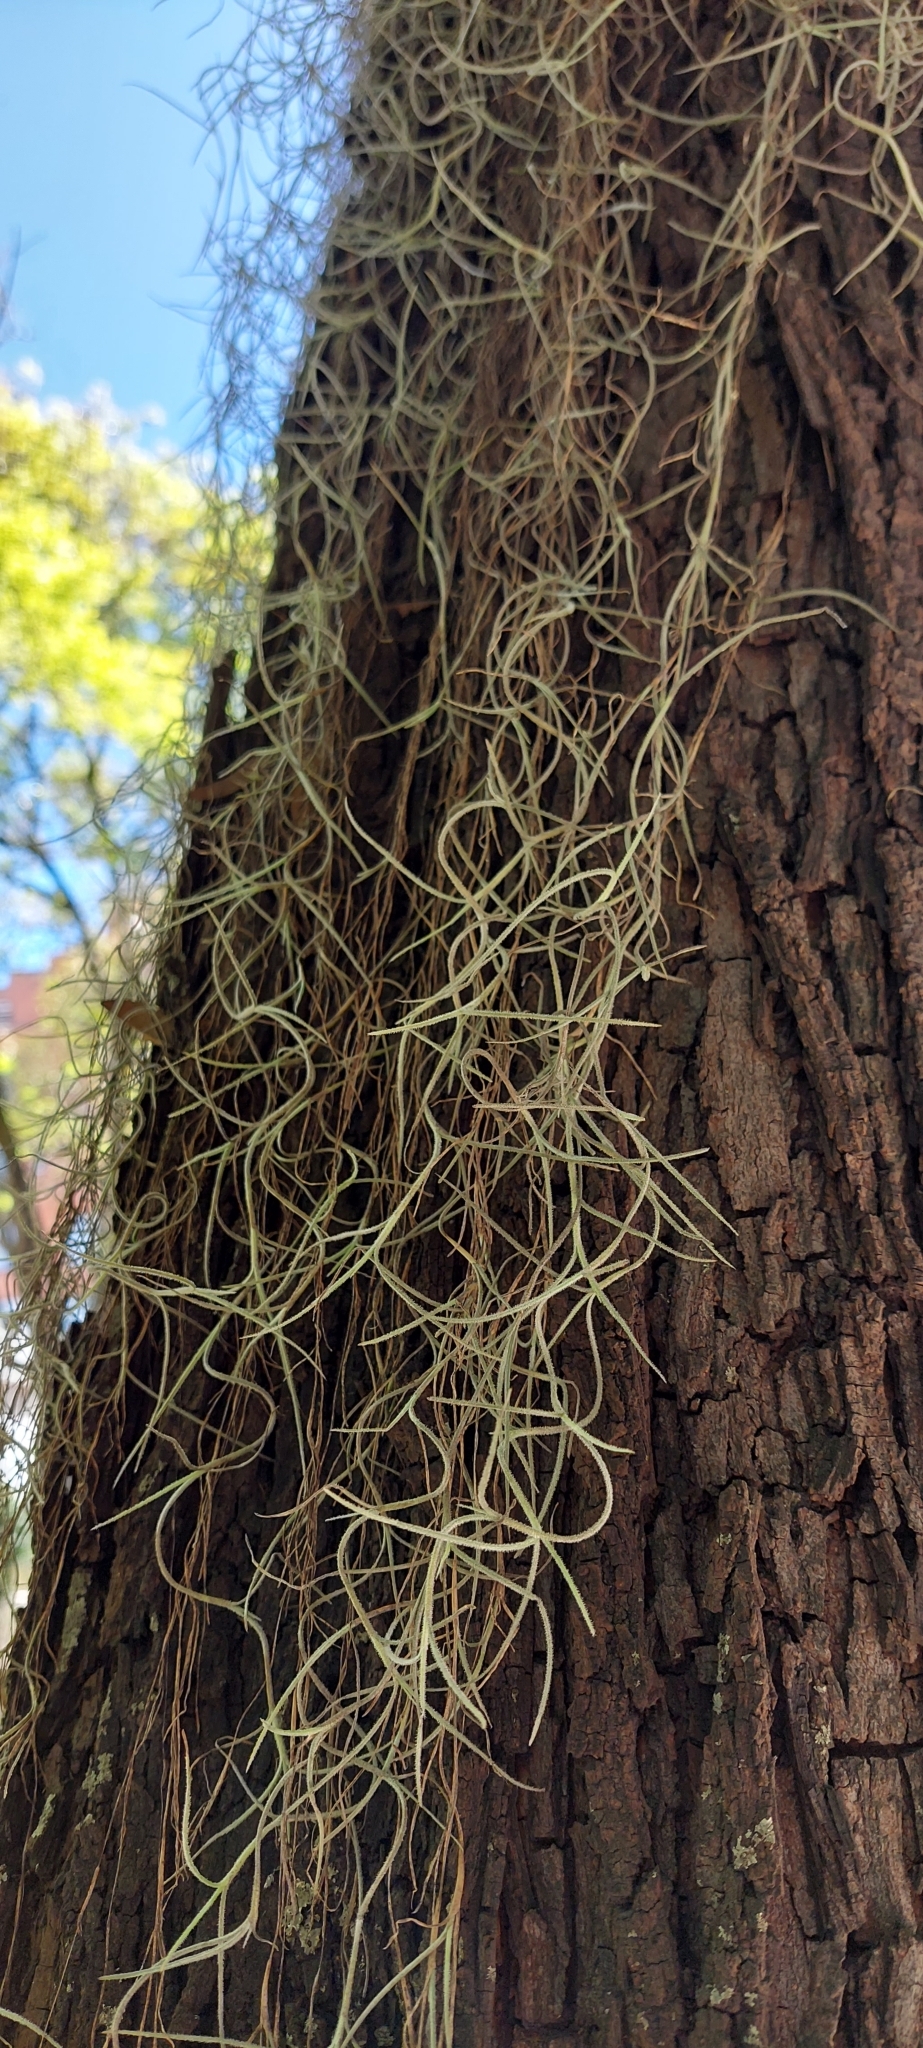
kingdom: Plantae
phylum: Tracheophyta
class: Liliopsida
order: Poales
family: Bromeliaceae
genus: Tillandsia
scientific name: Tillandsia usneoides
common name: Spanish moss
